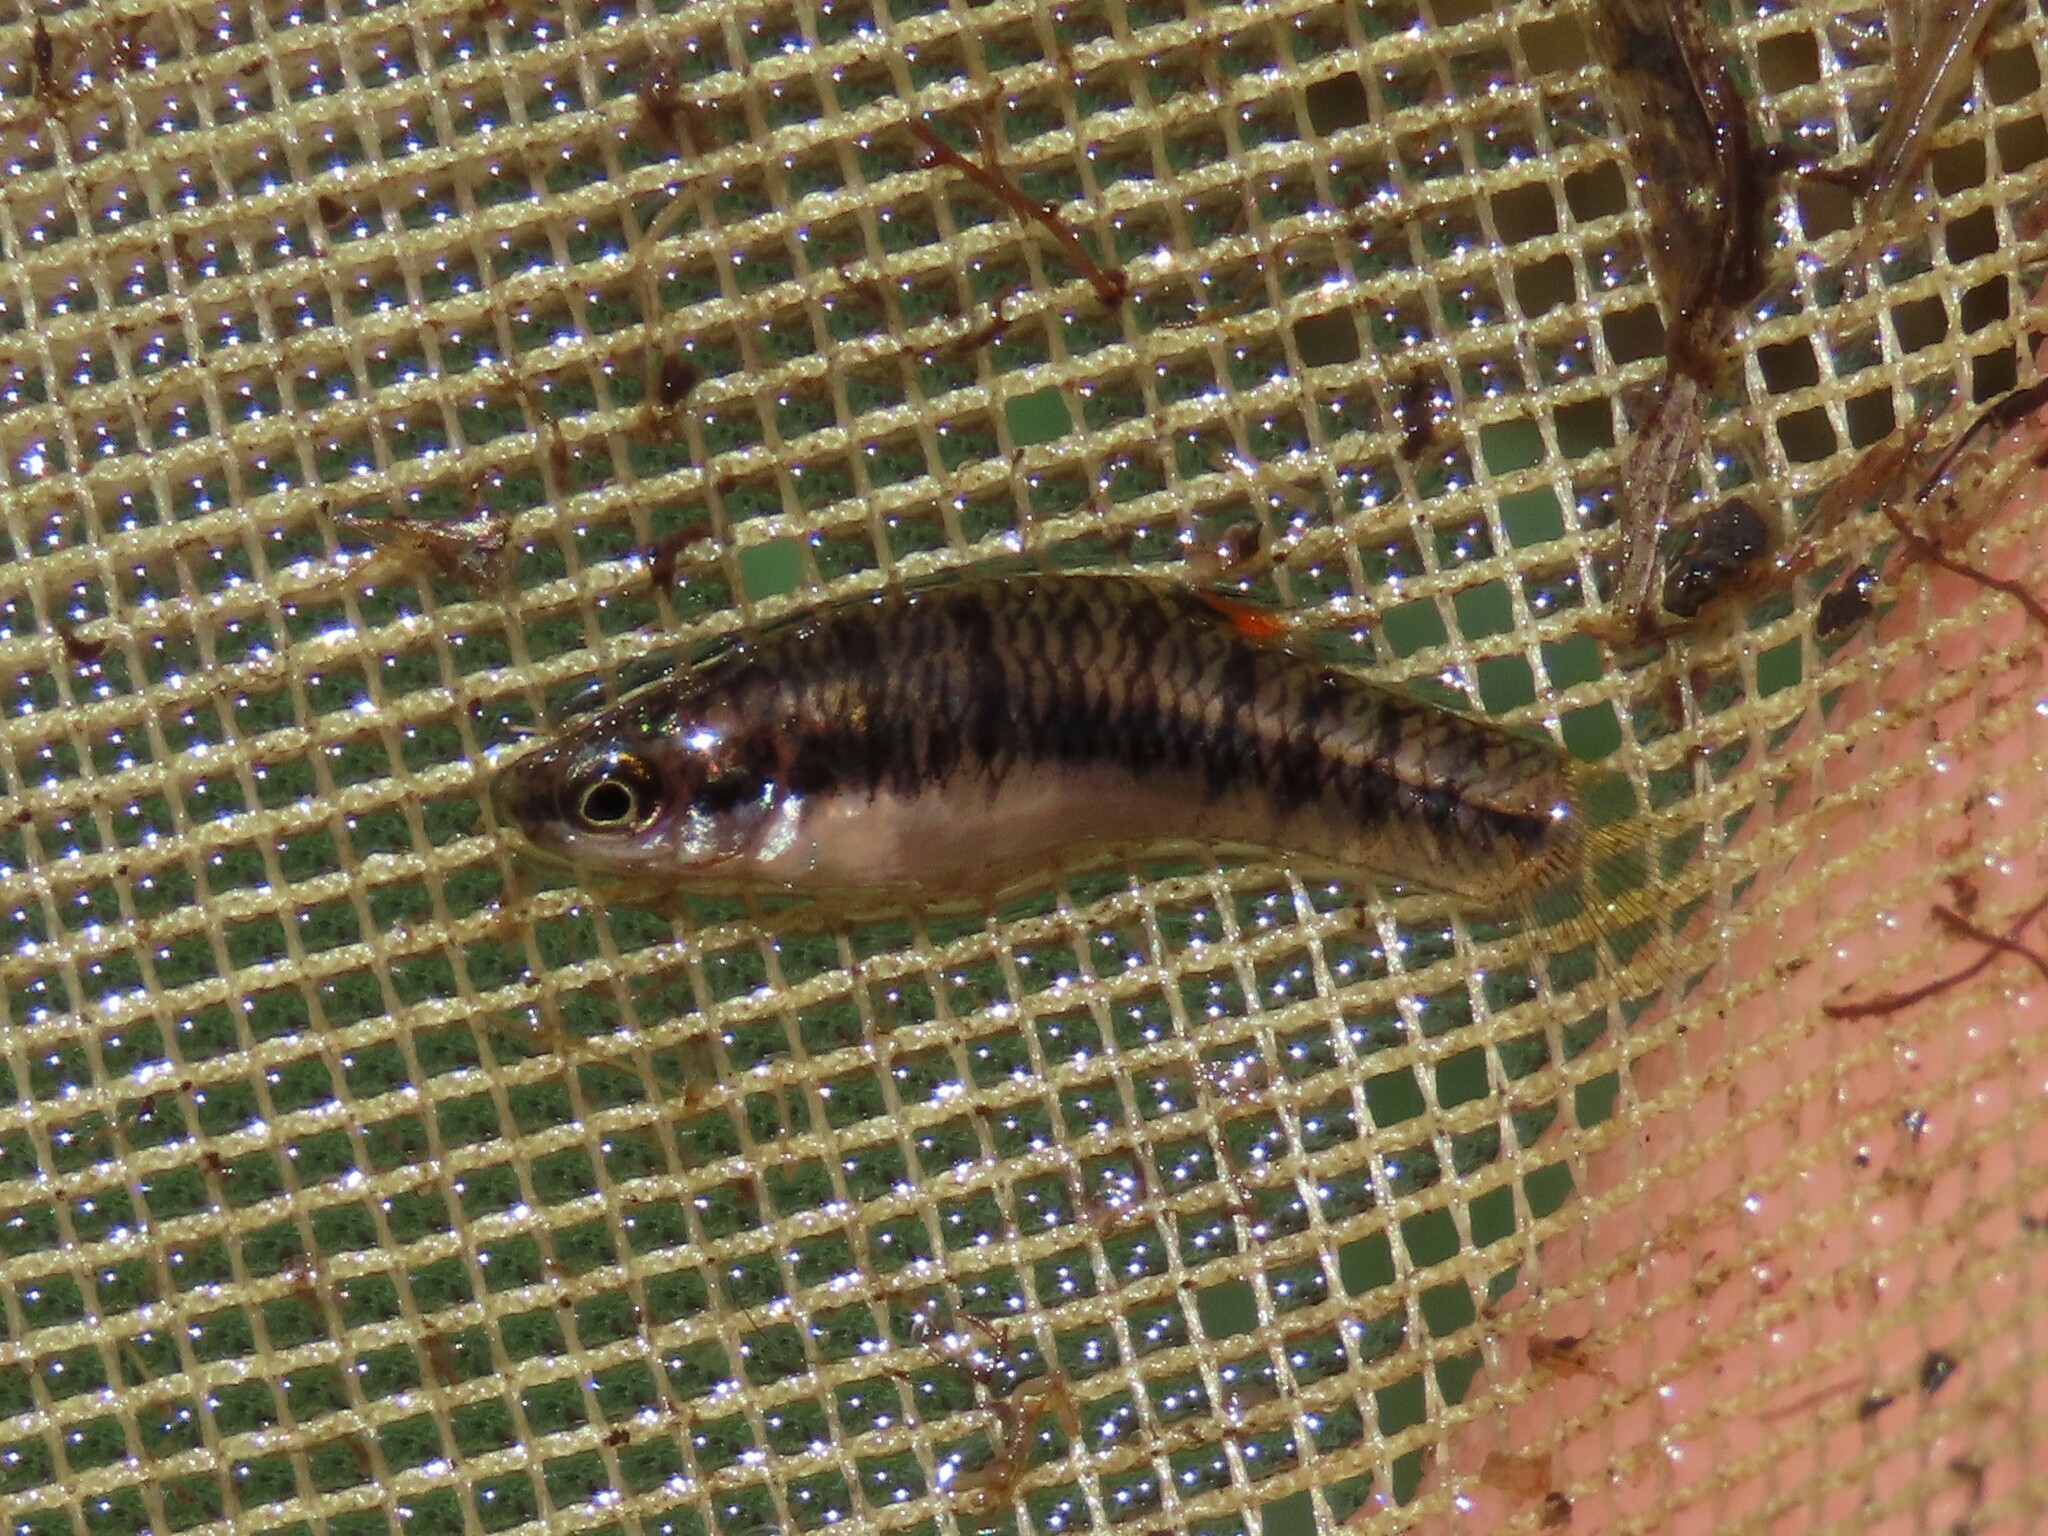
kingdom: Animalia
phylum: Chordata
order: Cyprinodontiformes
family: Poeciliidae
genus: Heterandria
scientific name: Heterandria formosa
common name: Least killifish
